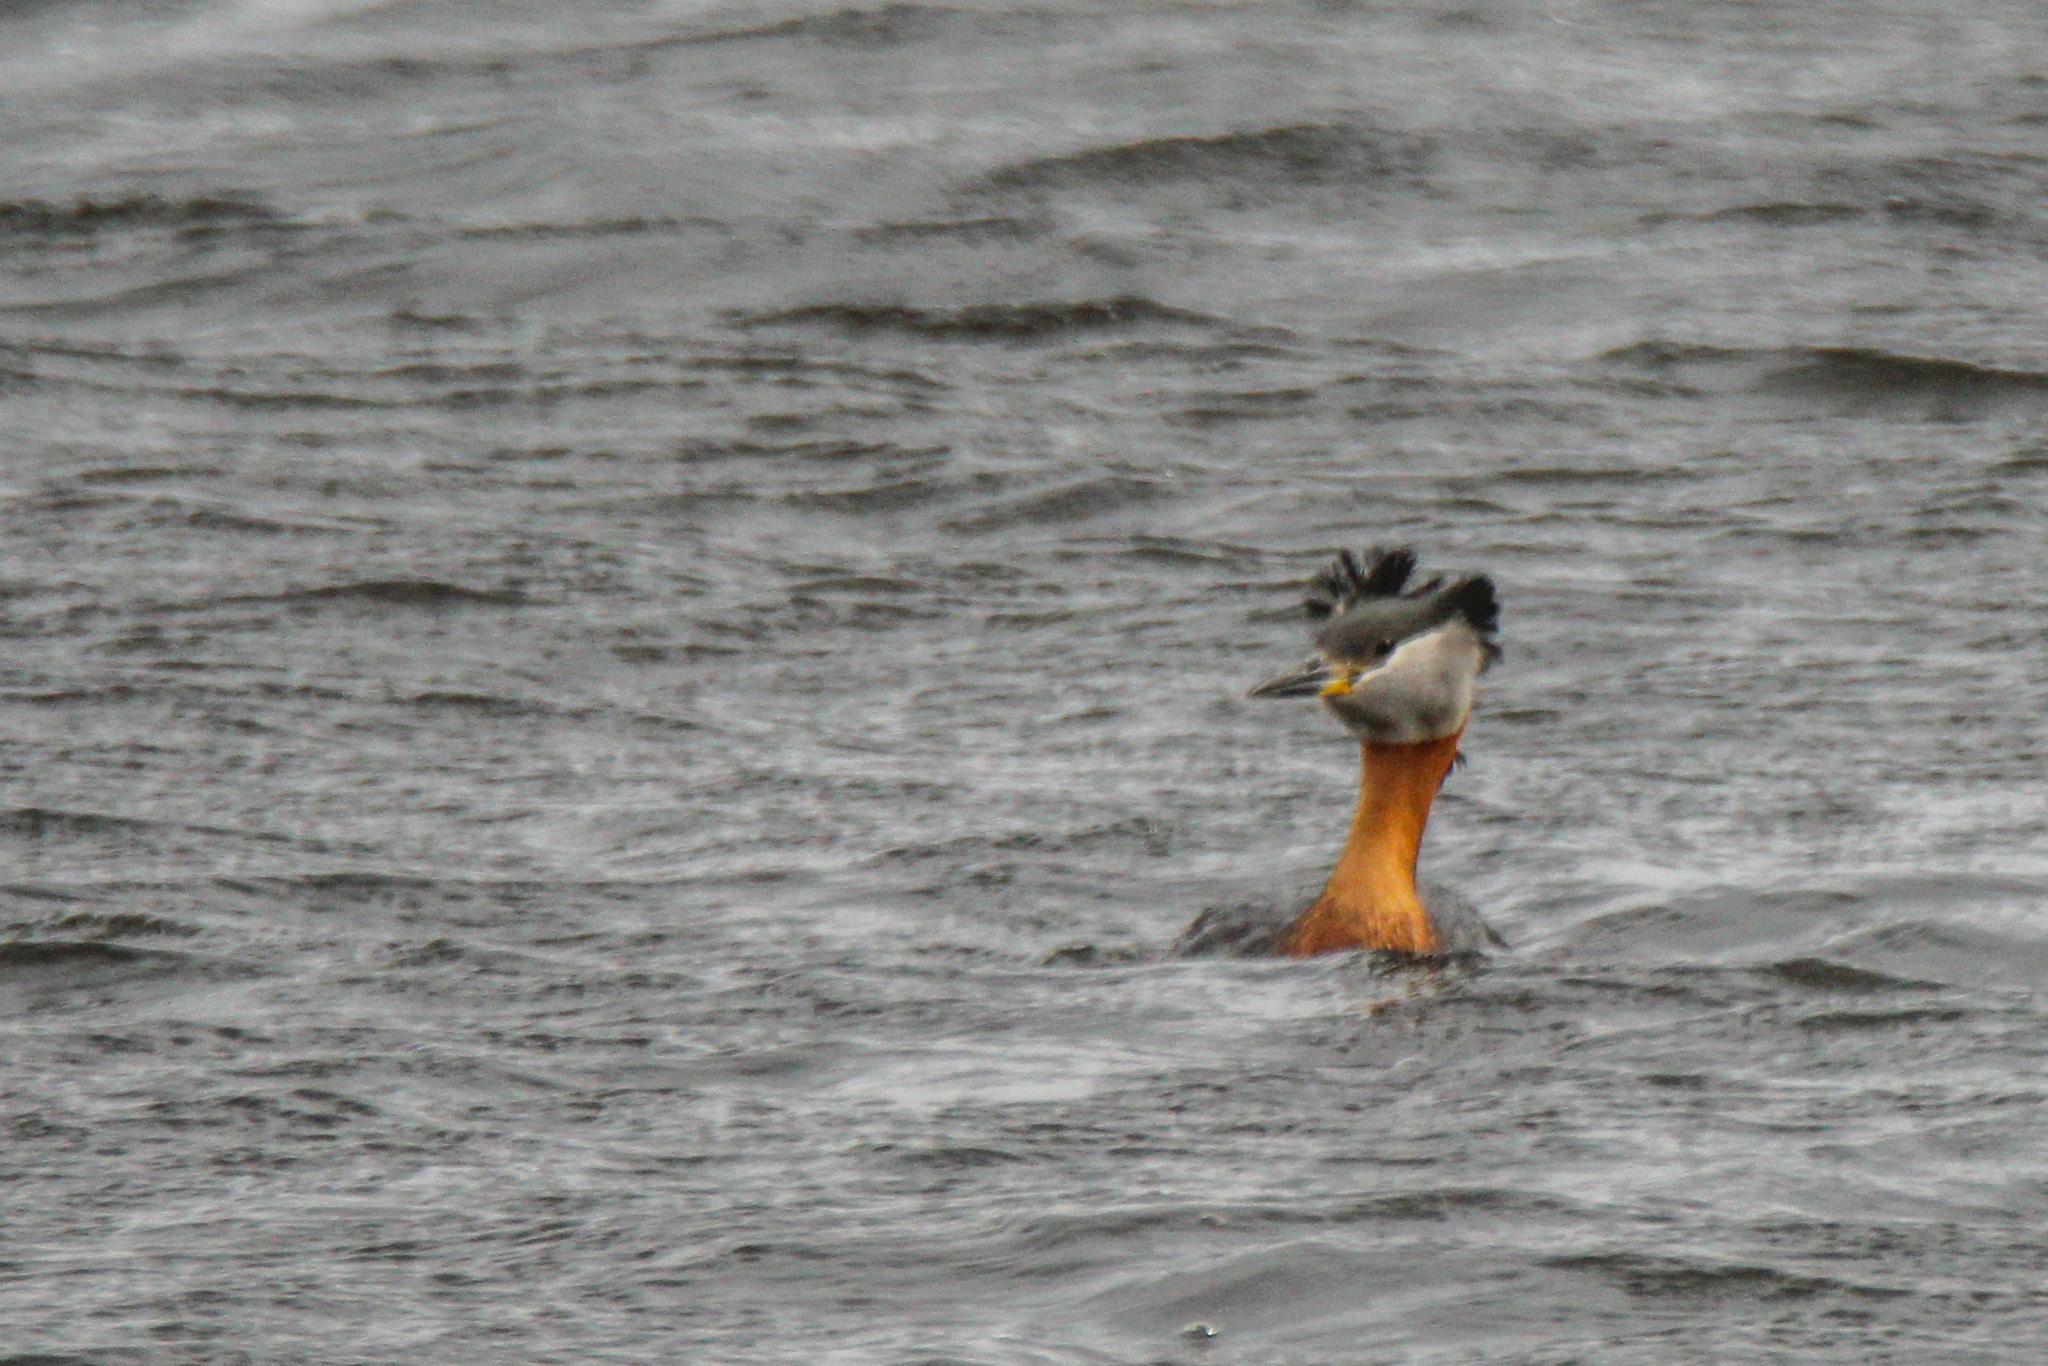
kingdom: Animalia
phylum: Chordata
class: Aves
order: Podicipediformes
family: Podicipedidae
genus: Podiceps
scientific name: Podiceps grisegena
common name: Red-necked grebe
